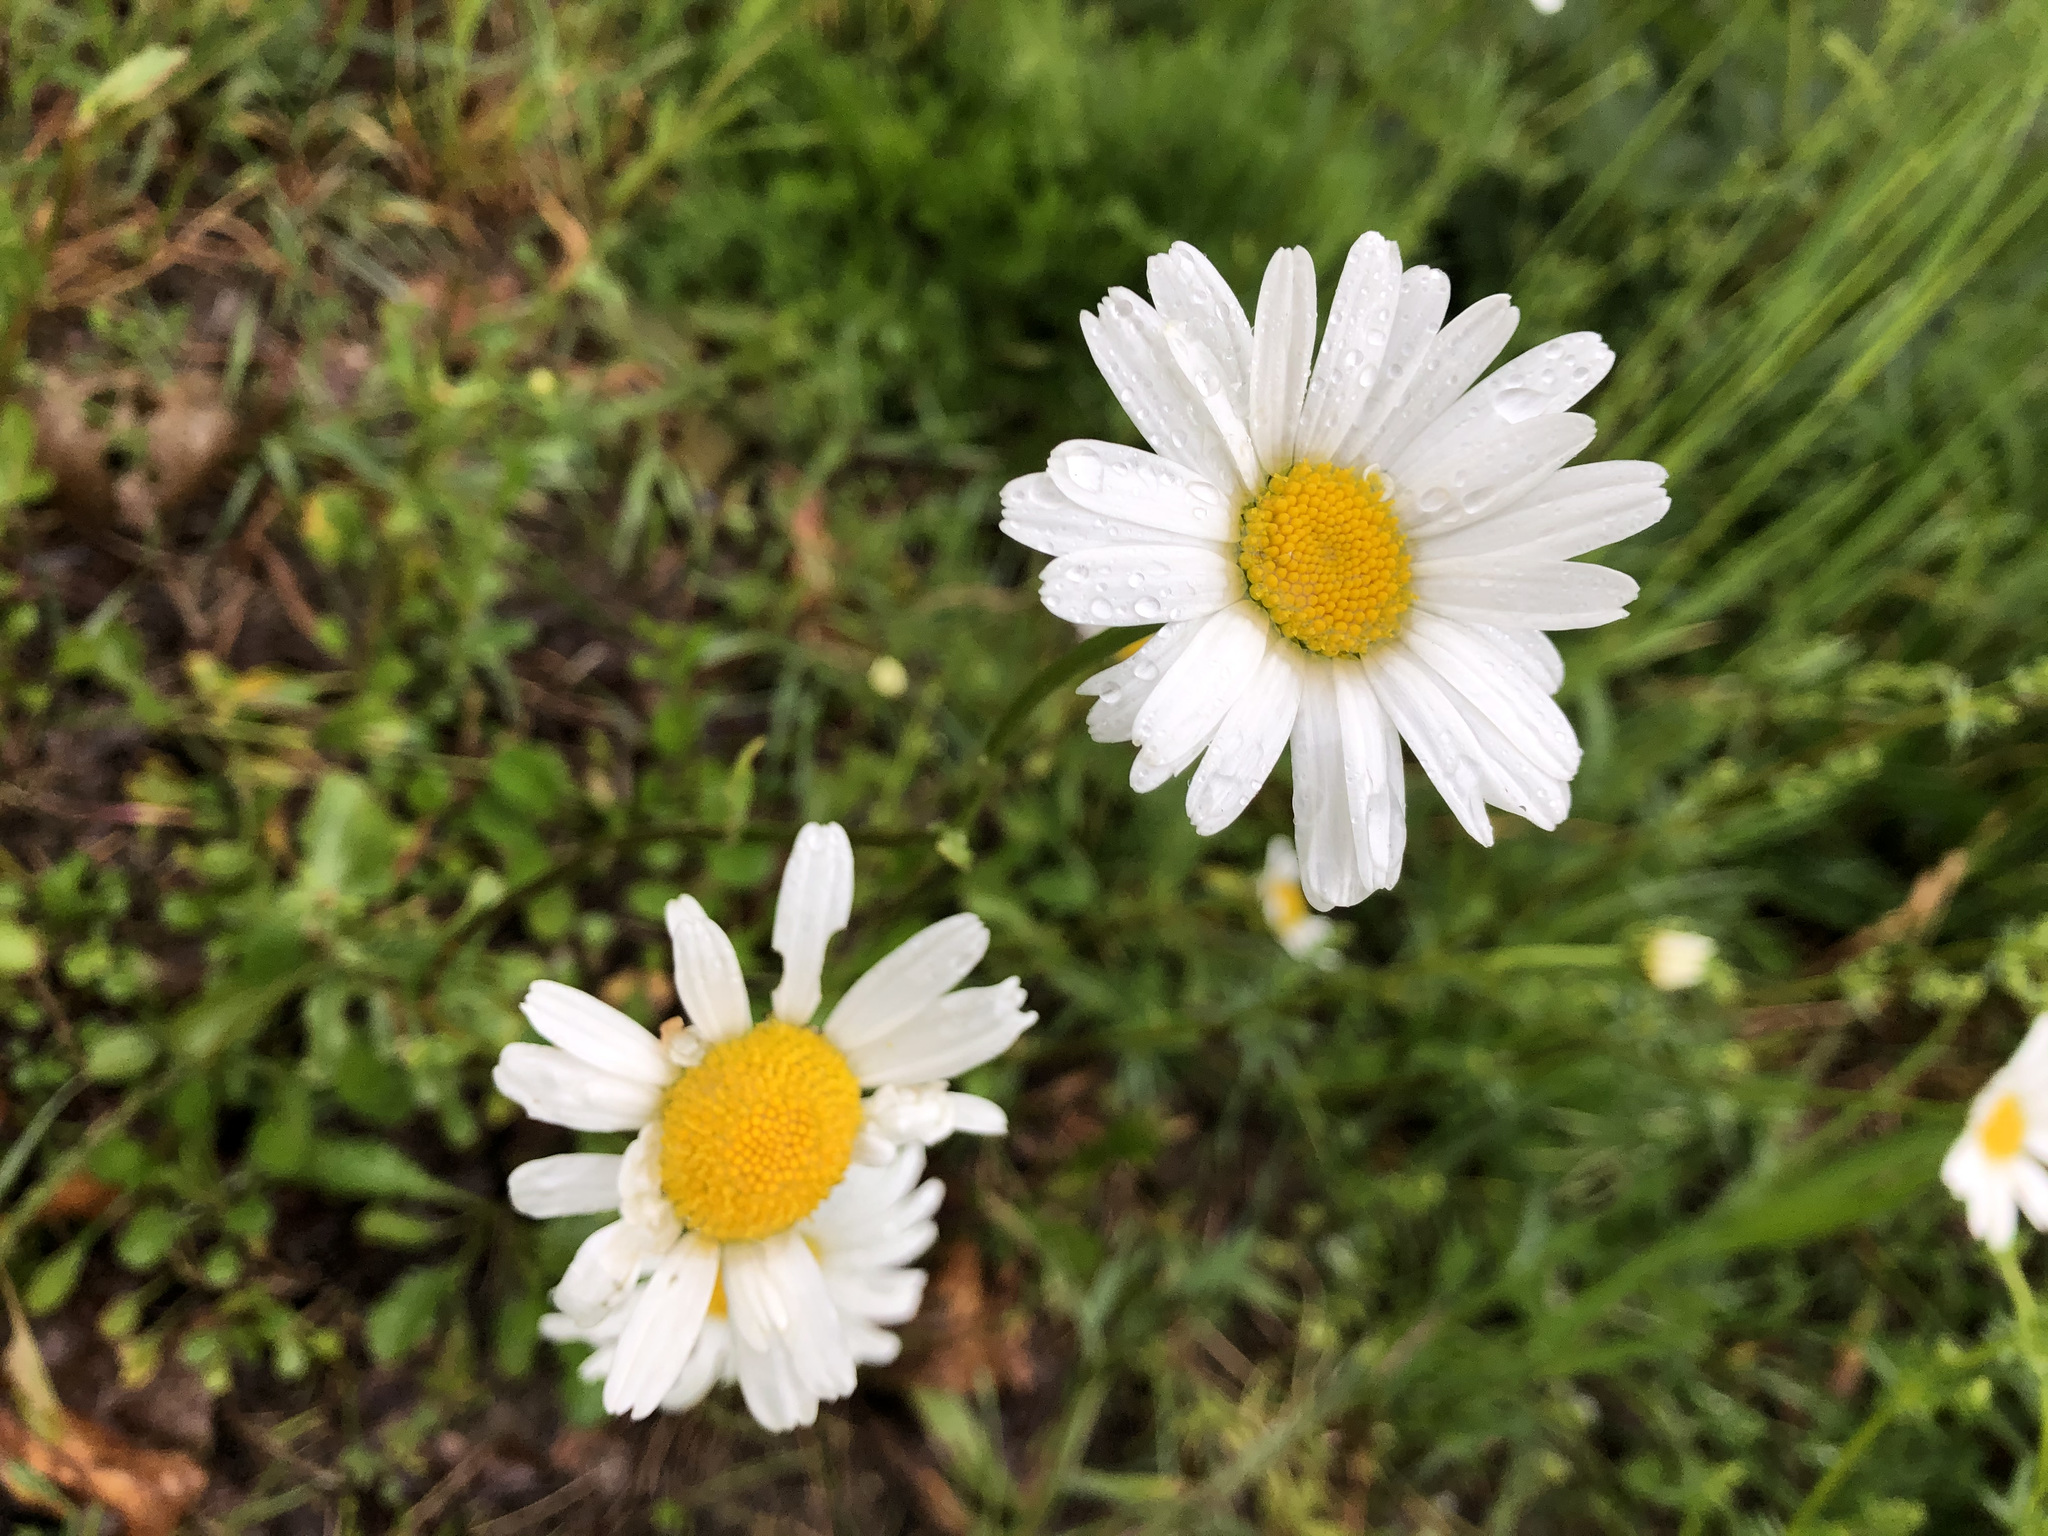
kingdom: Plantae
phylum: Tracheophyta
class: Magnoliopsida
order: Asterales
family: Asteraceae
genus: Leucanthemum
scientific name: Leucanthemum vulgare
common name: Oxeye daisy
